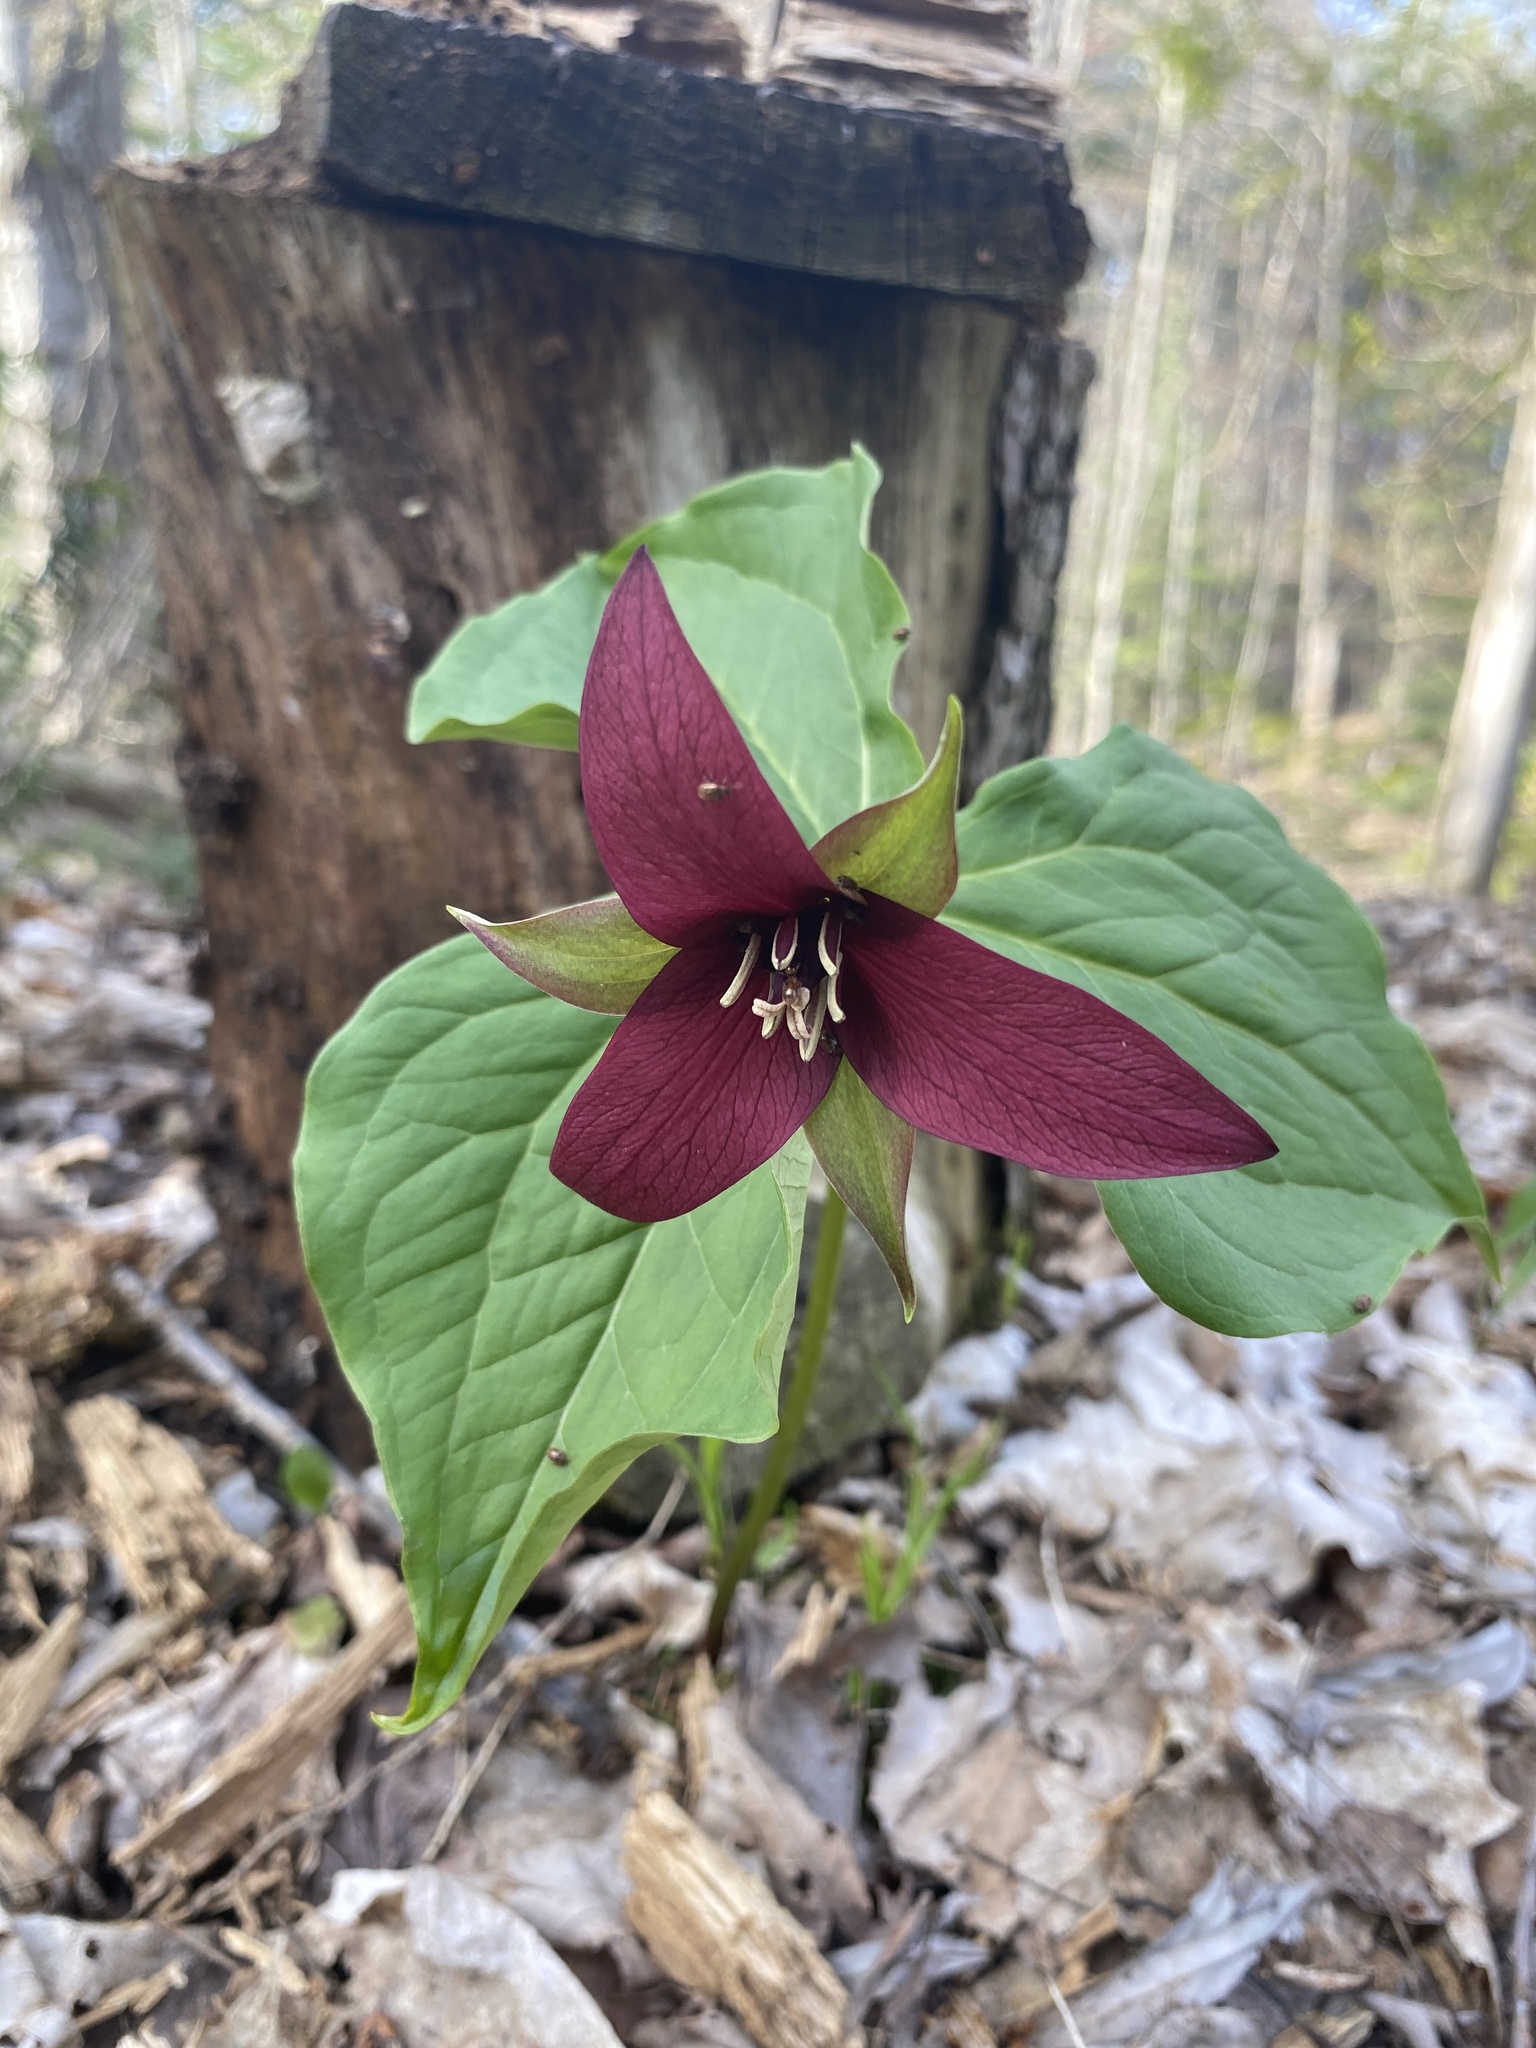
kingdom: Plantae
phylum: Tracheophyta
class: Liliopsida
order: Liliales
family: Melanthiaceae
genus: Trillium
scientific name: Trillium erectum
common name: Purple trillium
